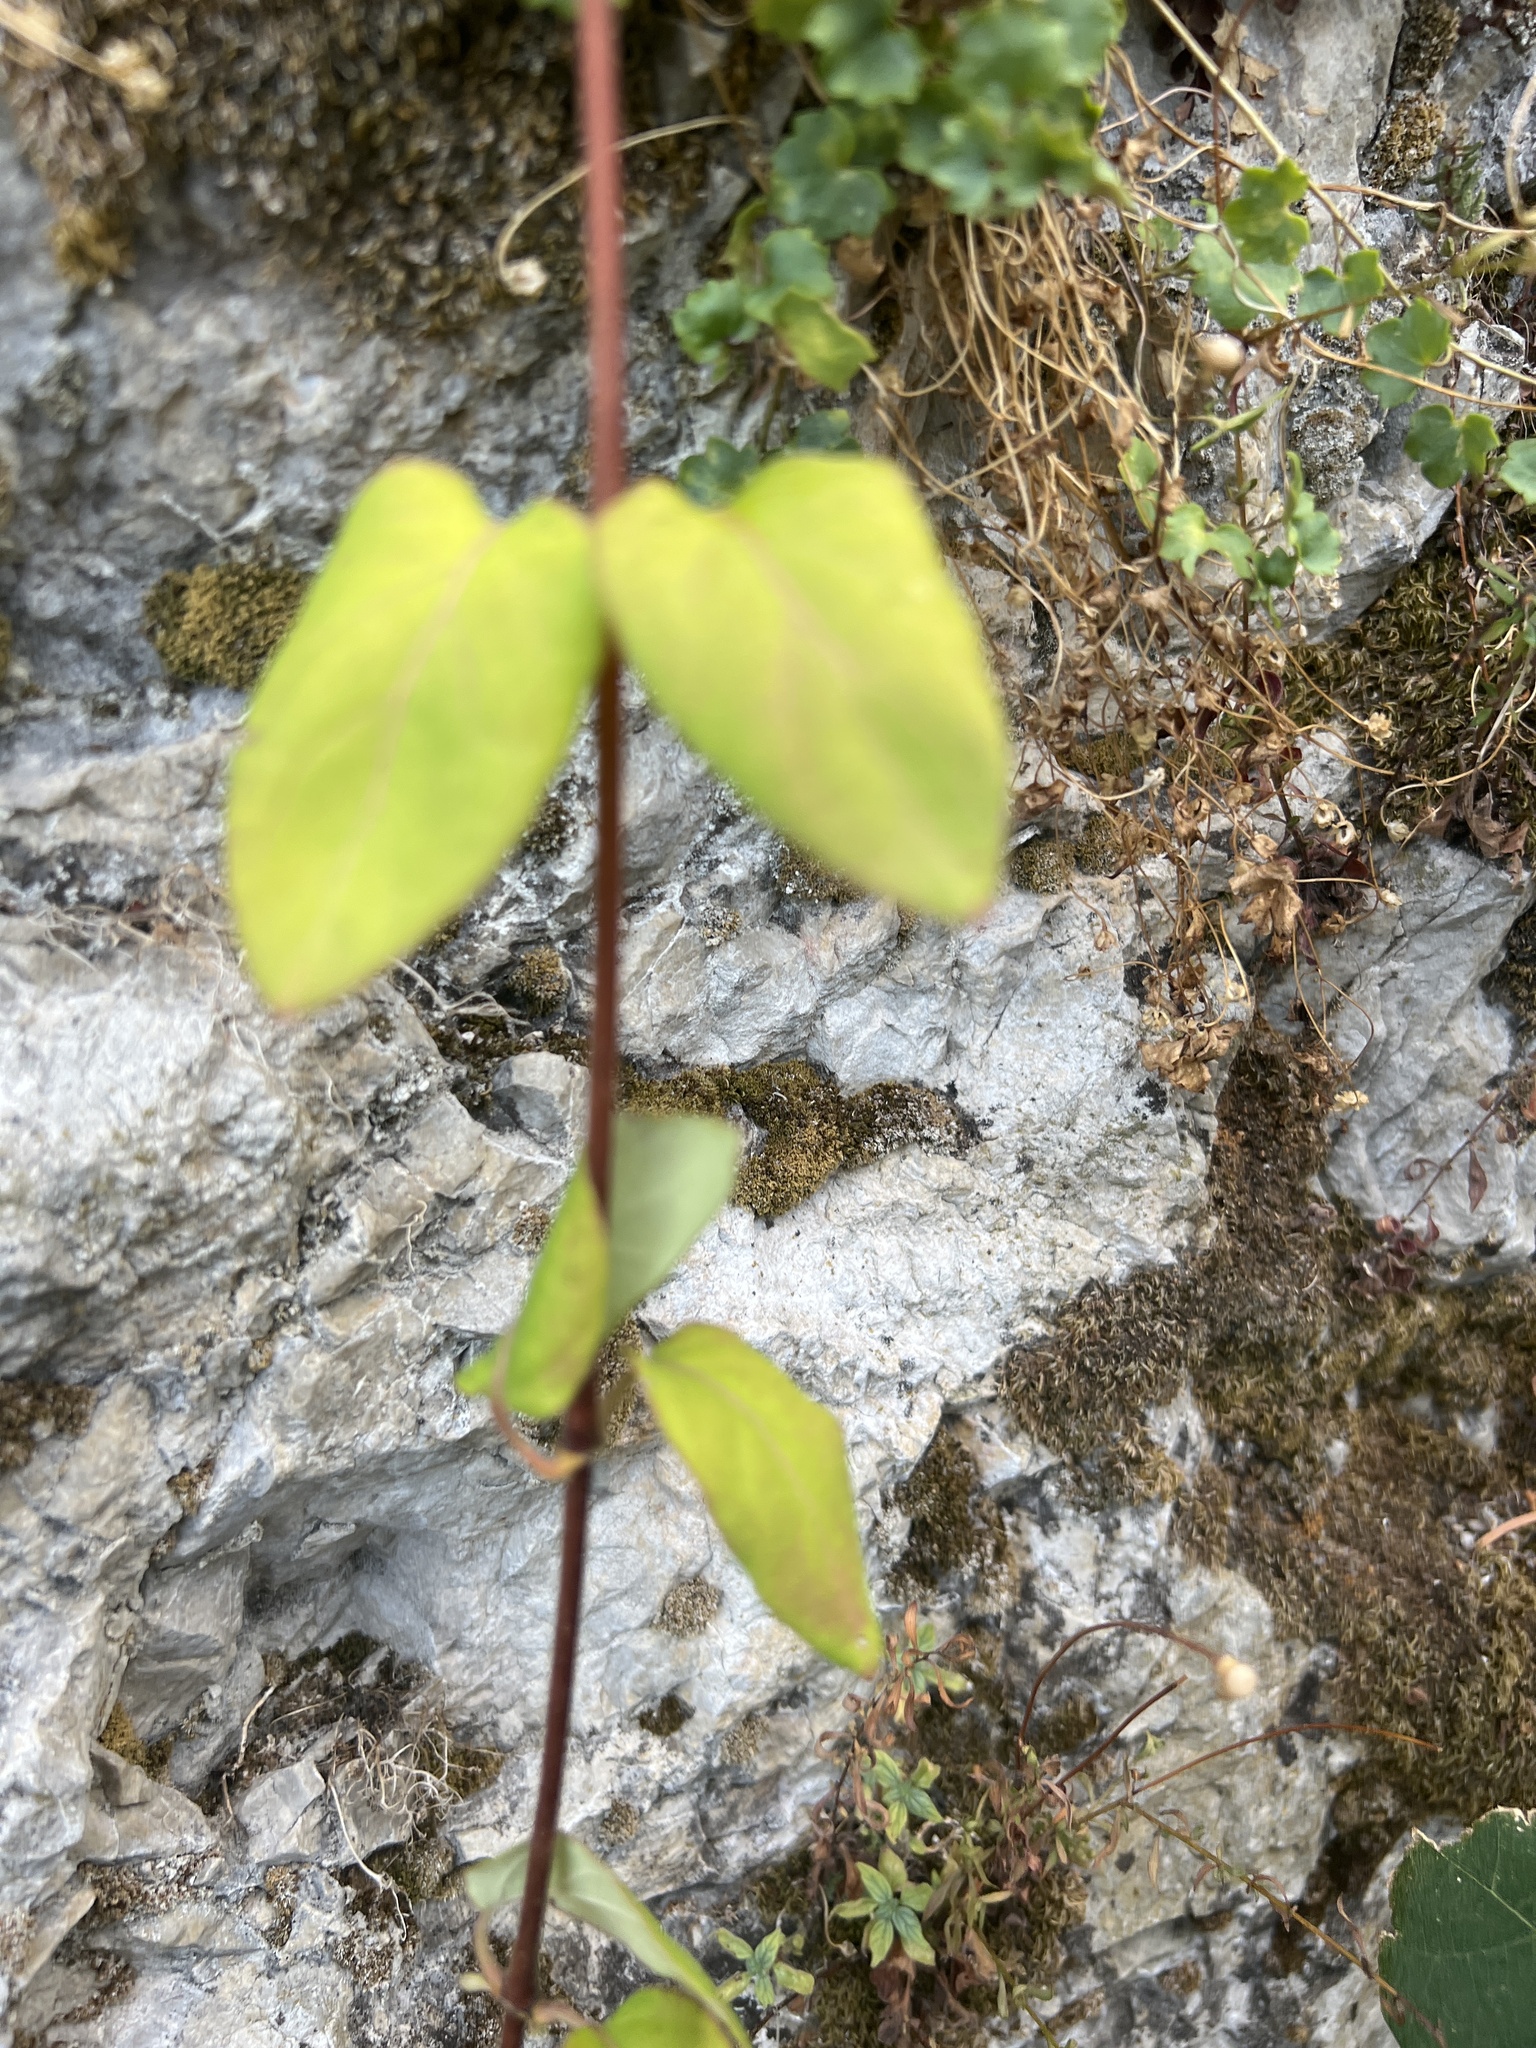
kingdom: Plantae
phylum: Tracheophyta
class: Magnoliopsida
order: Dipsacales
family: Caprifoliaceae
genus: Lonicera
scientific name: Lonicera japonica
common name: Japanese honeysuckle
